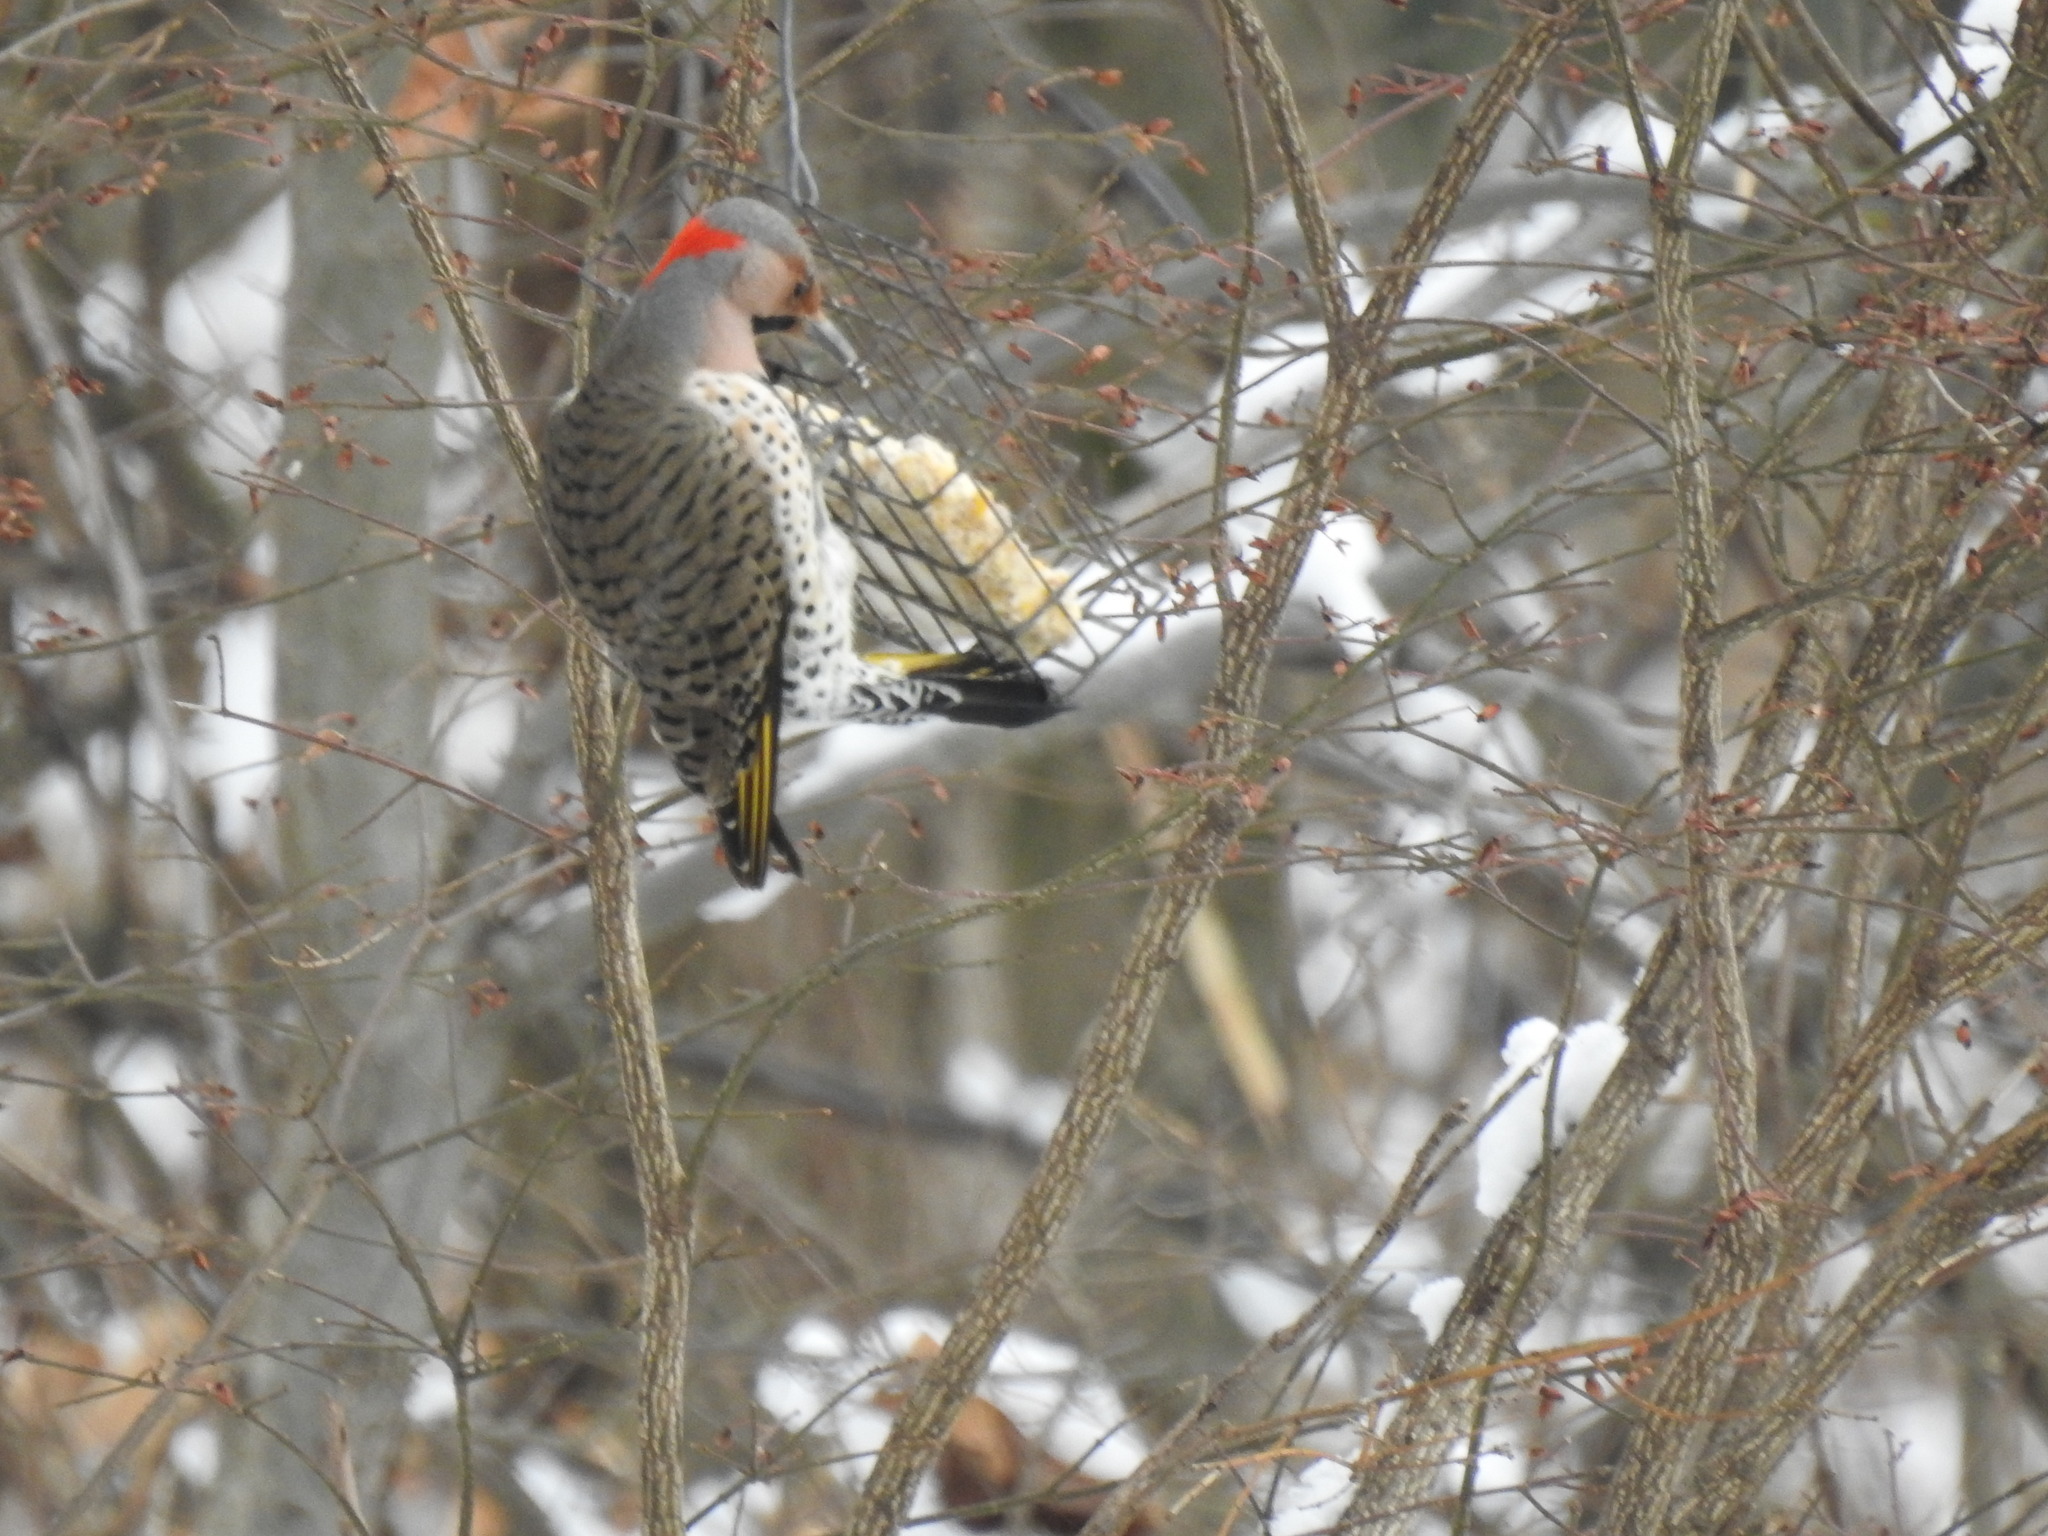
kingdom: Animalia
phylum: Chordata
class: Aves
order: Piciformes
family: Picidae
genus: Colaptes
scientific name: Colaptes auratus
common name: Northern flicker
